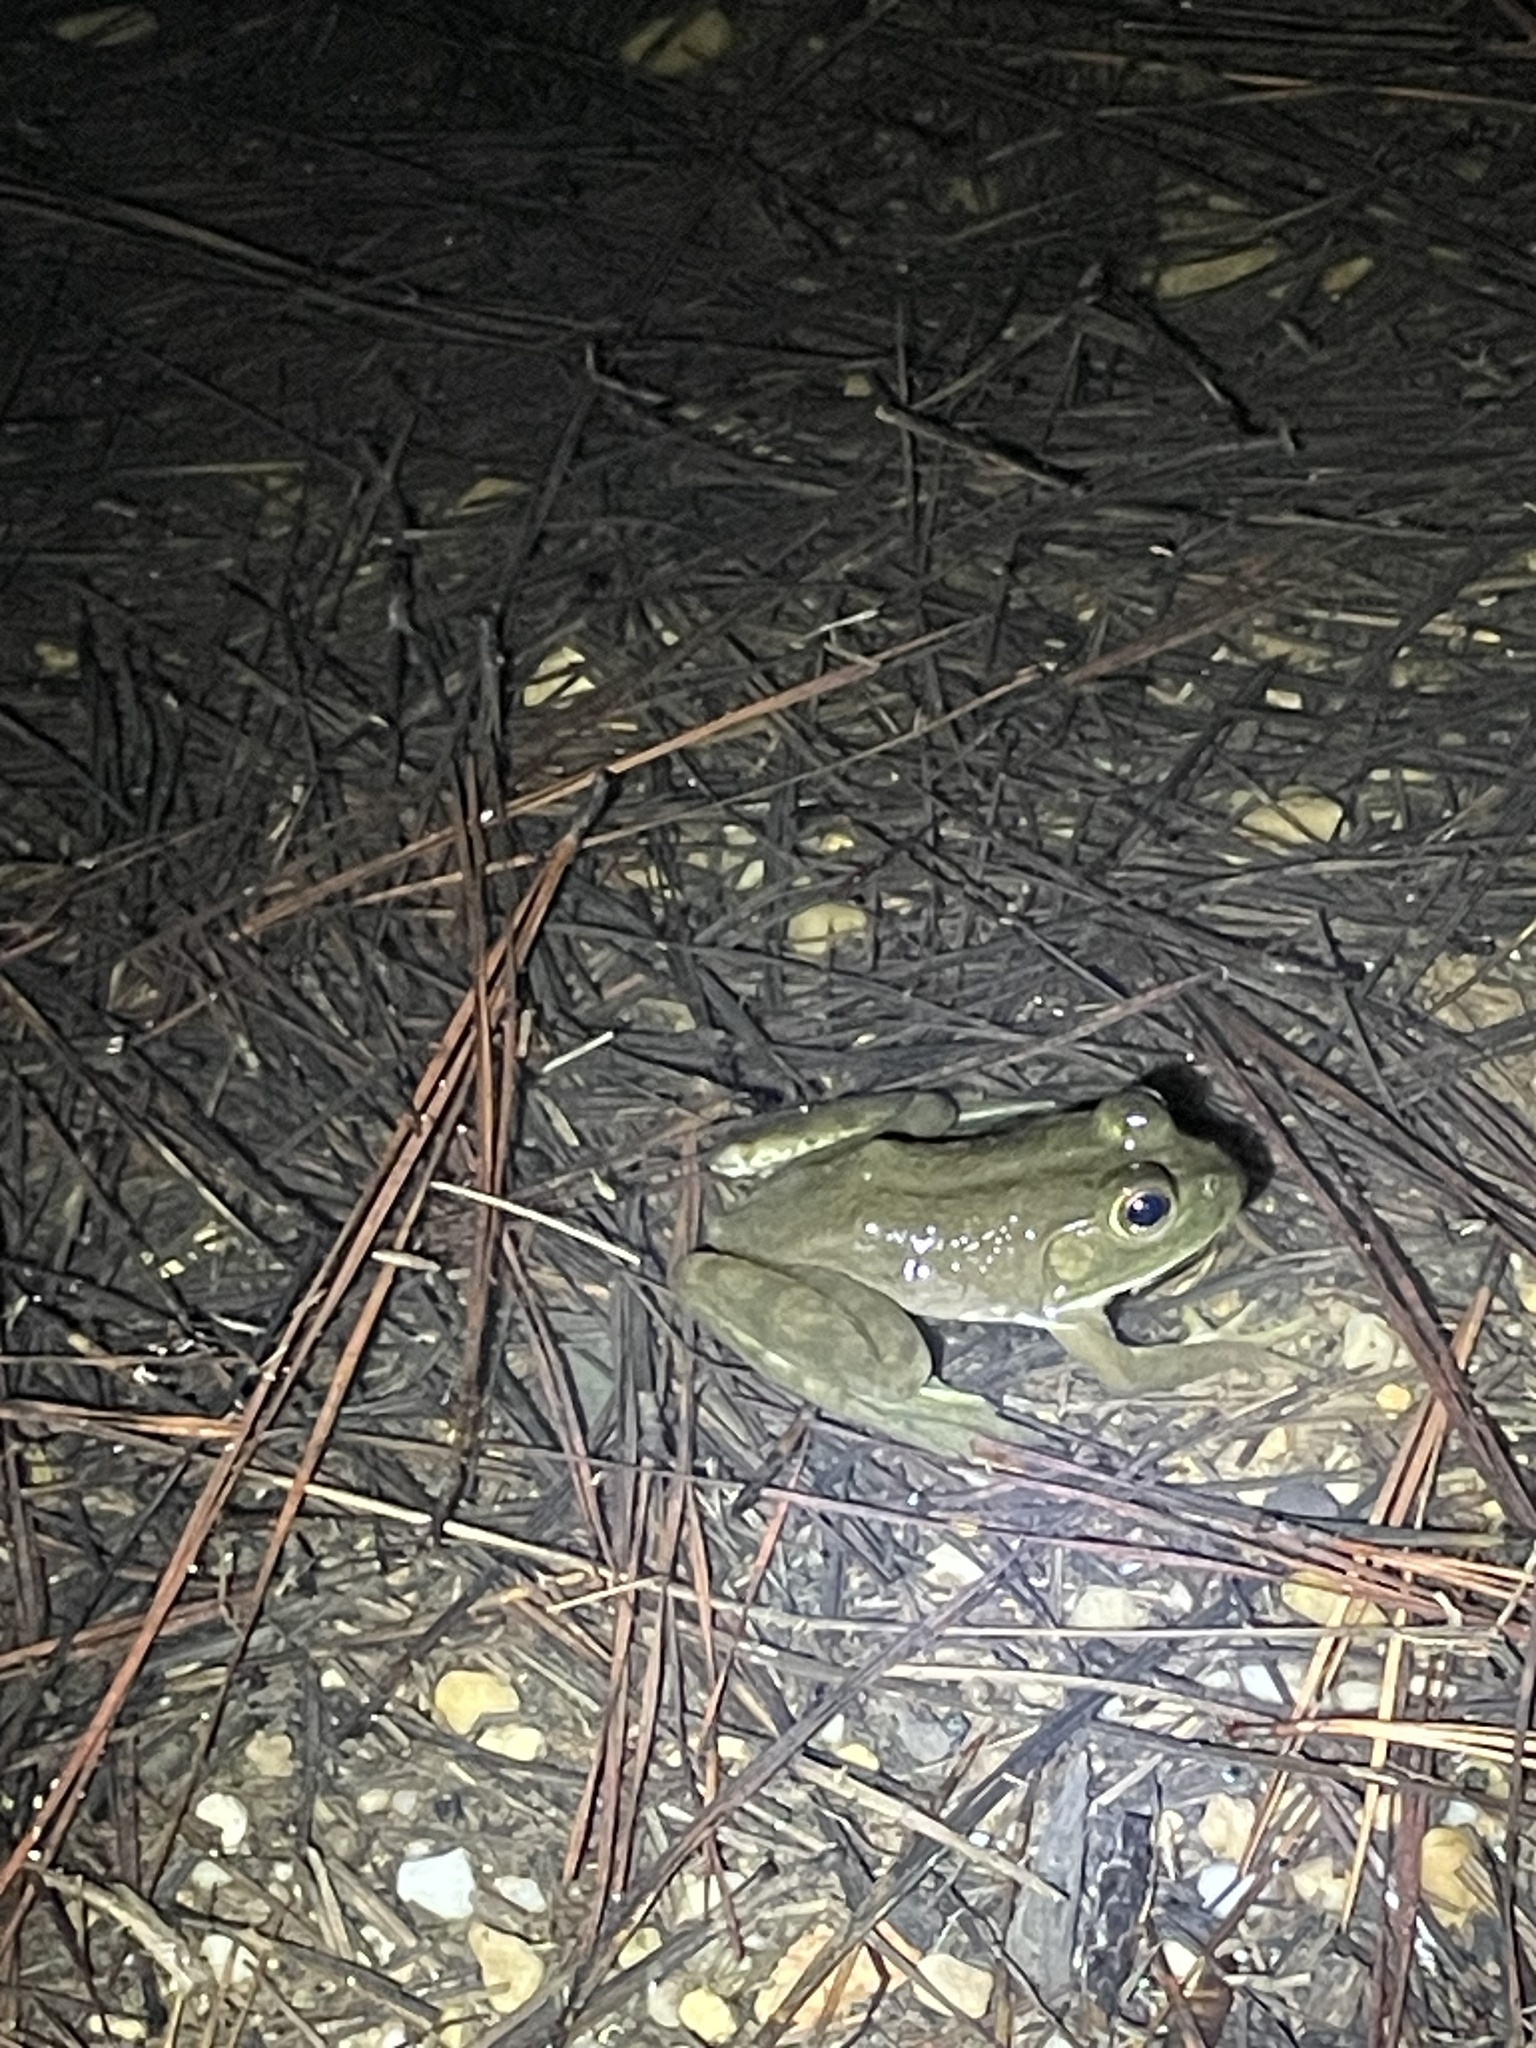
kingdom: Animalia
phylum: Chordata
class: Amphibia
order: Anura
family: Ranidae
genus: Lithobates
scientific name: Lithobates catesbeianus
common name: American bullfrog
